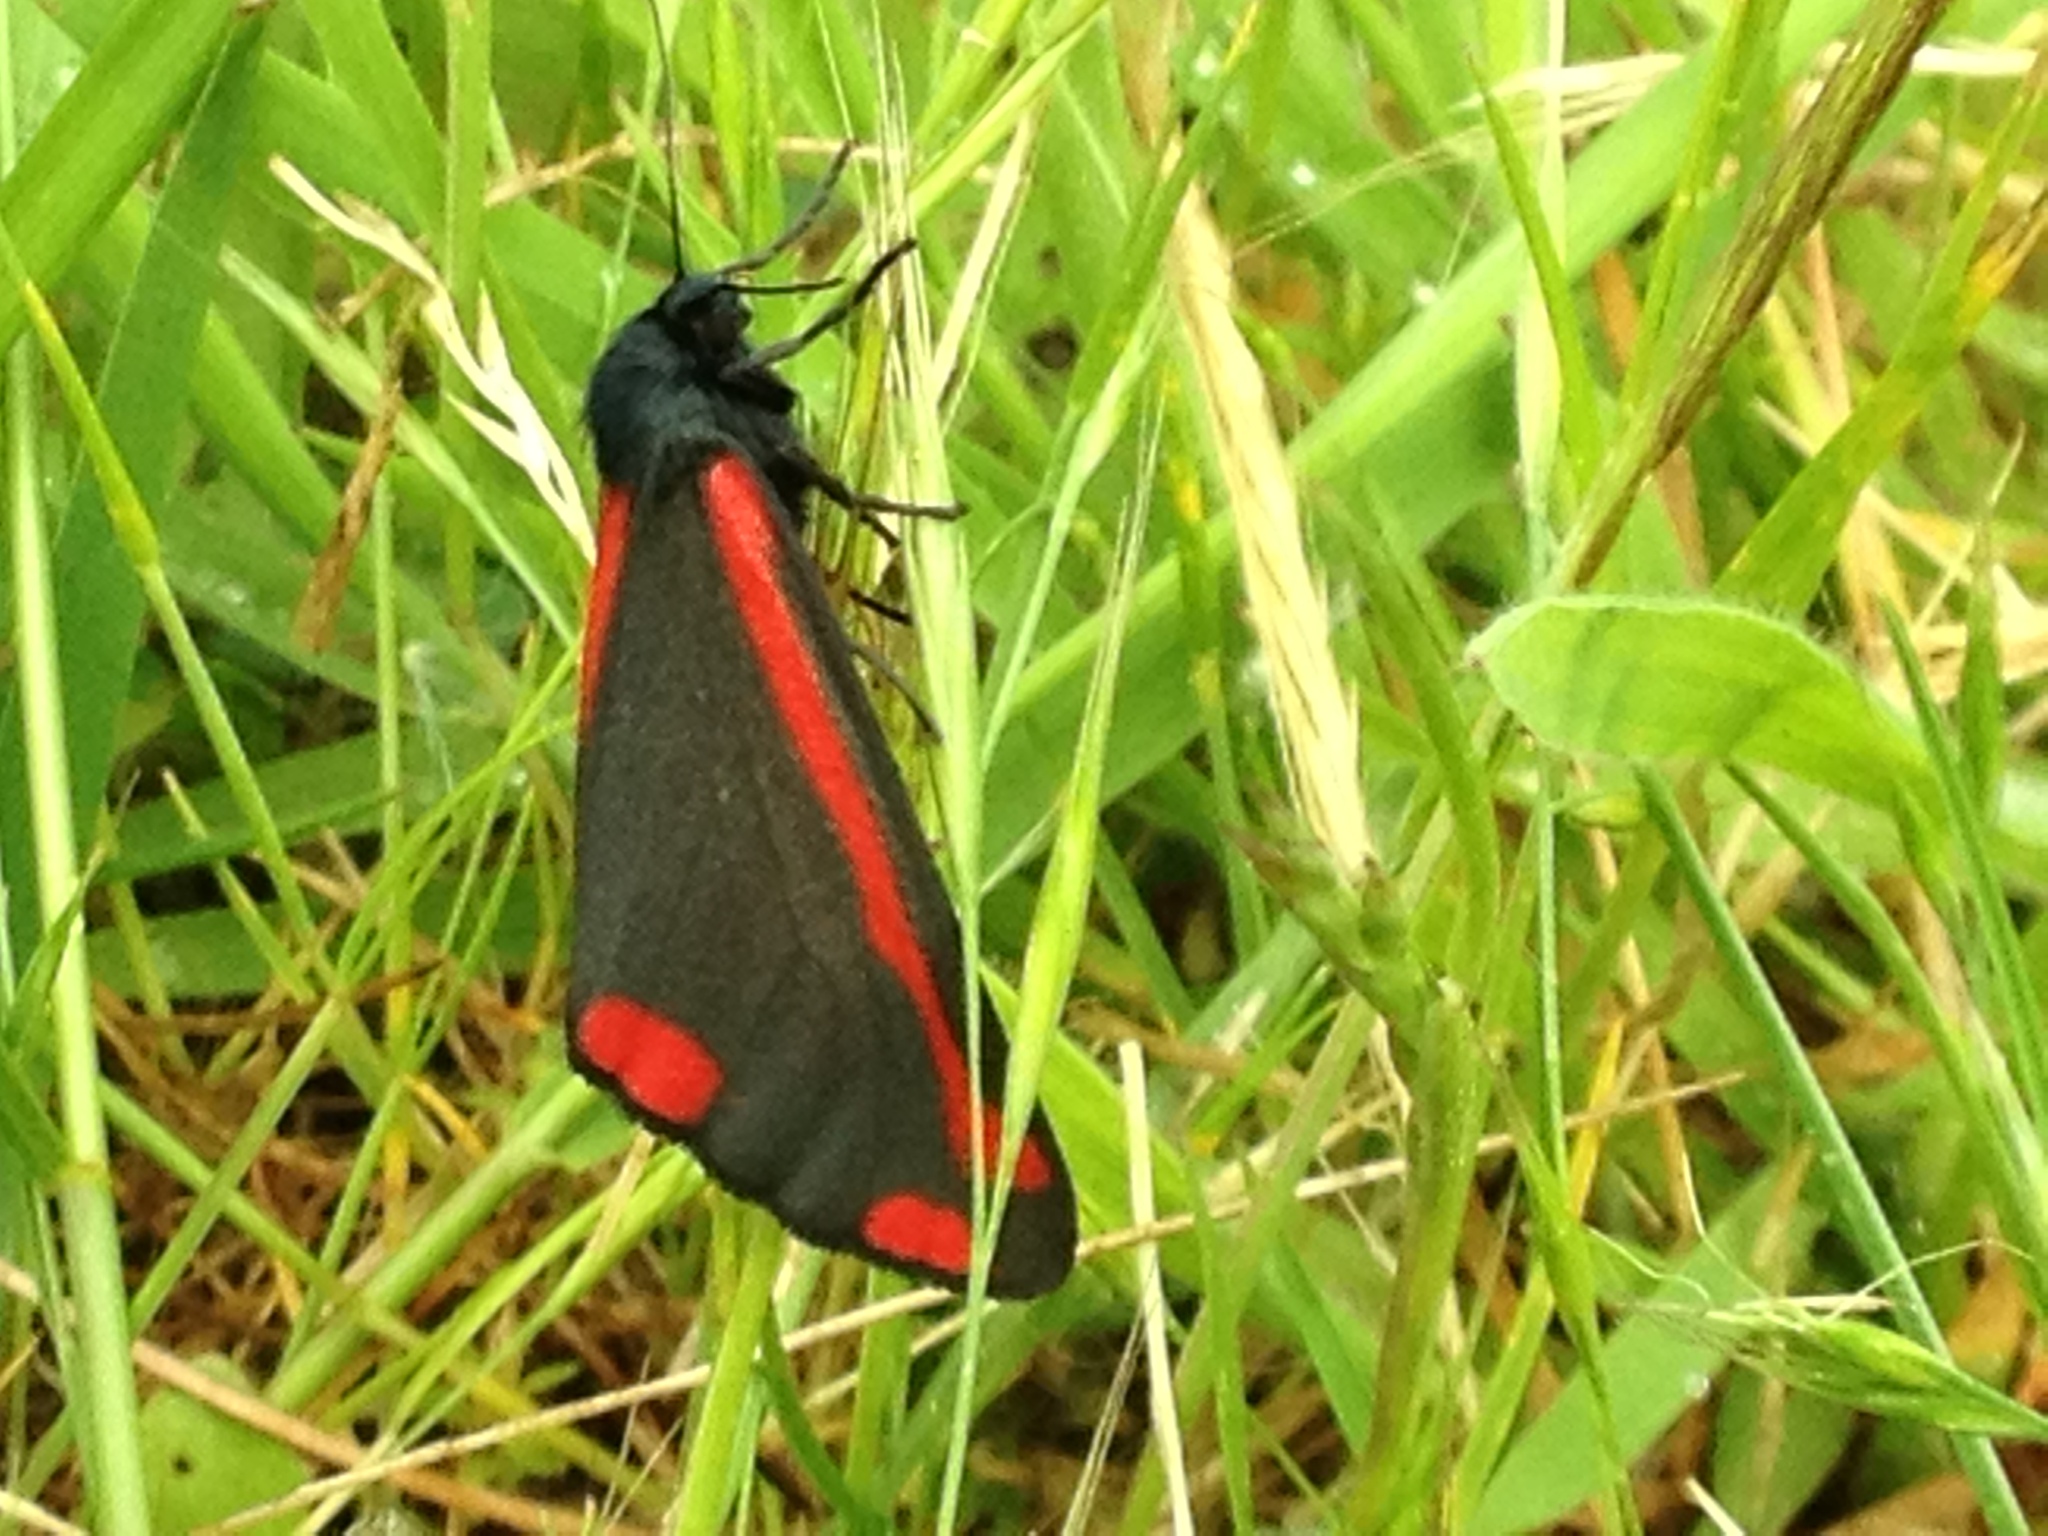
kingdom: Animalia
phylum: Arthropoda
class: Insecta
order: Lepidoptera
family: Erebidae
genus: Tyria
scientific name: Tyria jacobaeae
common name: Cinnabar
